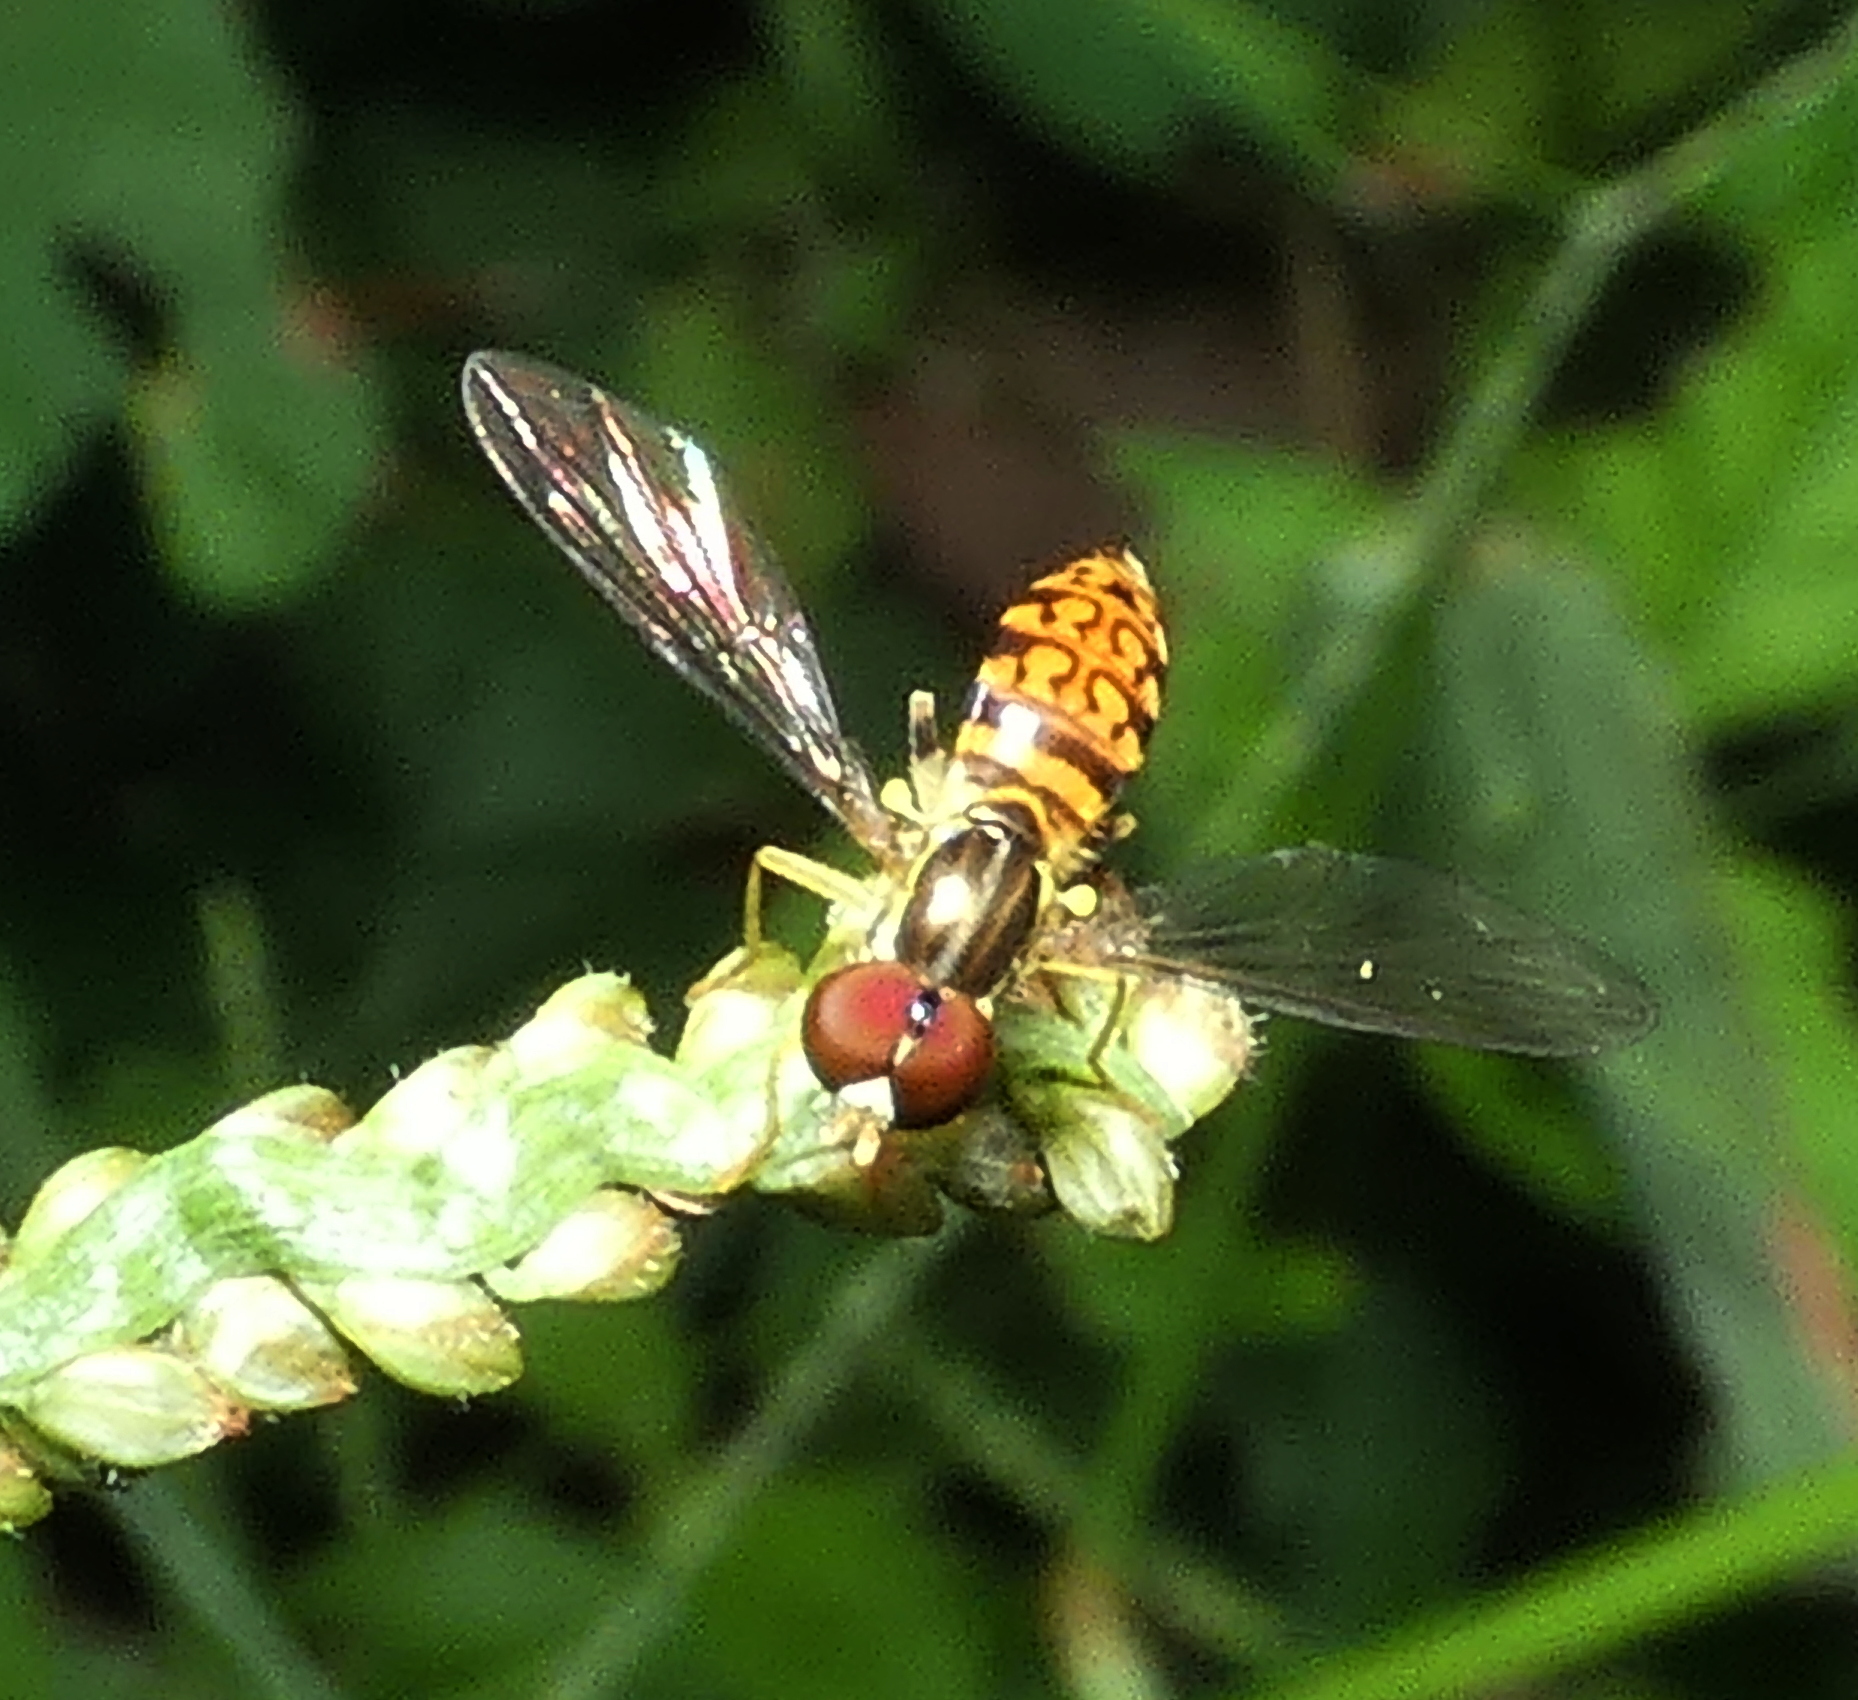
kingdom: Animalia
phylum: Arthropoda
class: Insecta
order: Diptera
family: Syrphidae
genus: Toxomerus
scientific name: Toxomerus pictus
